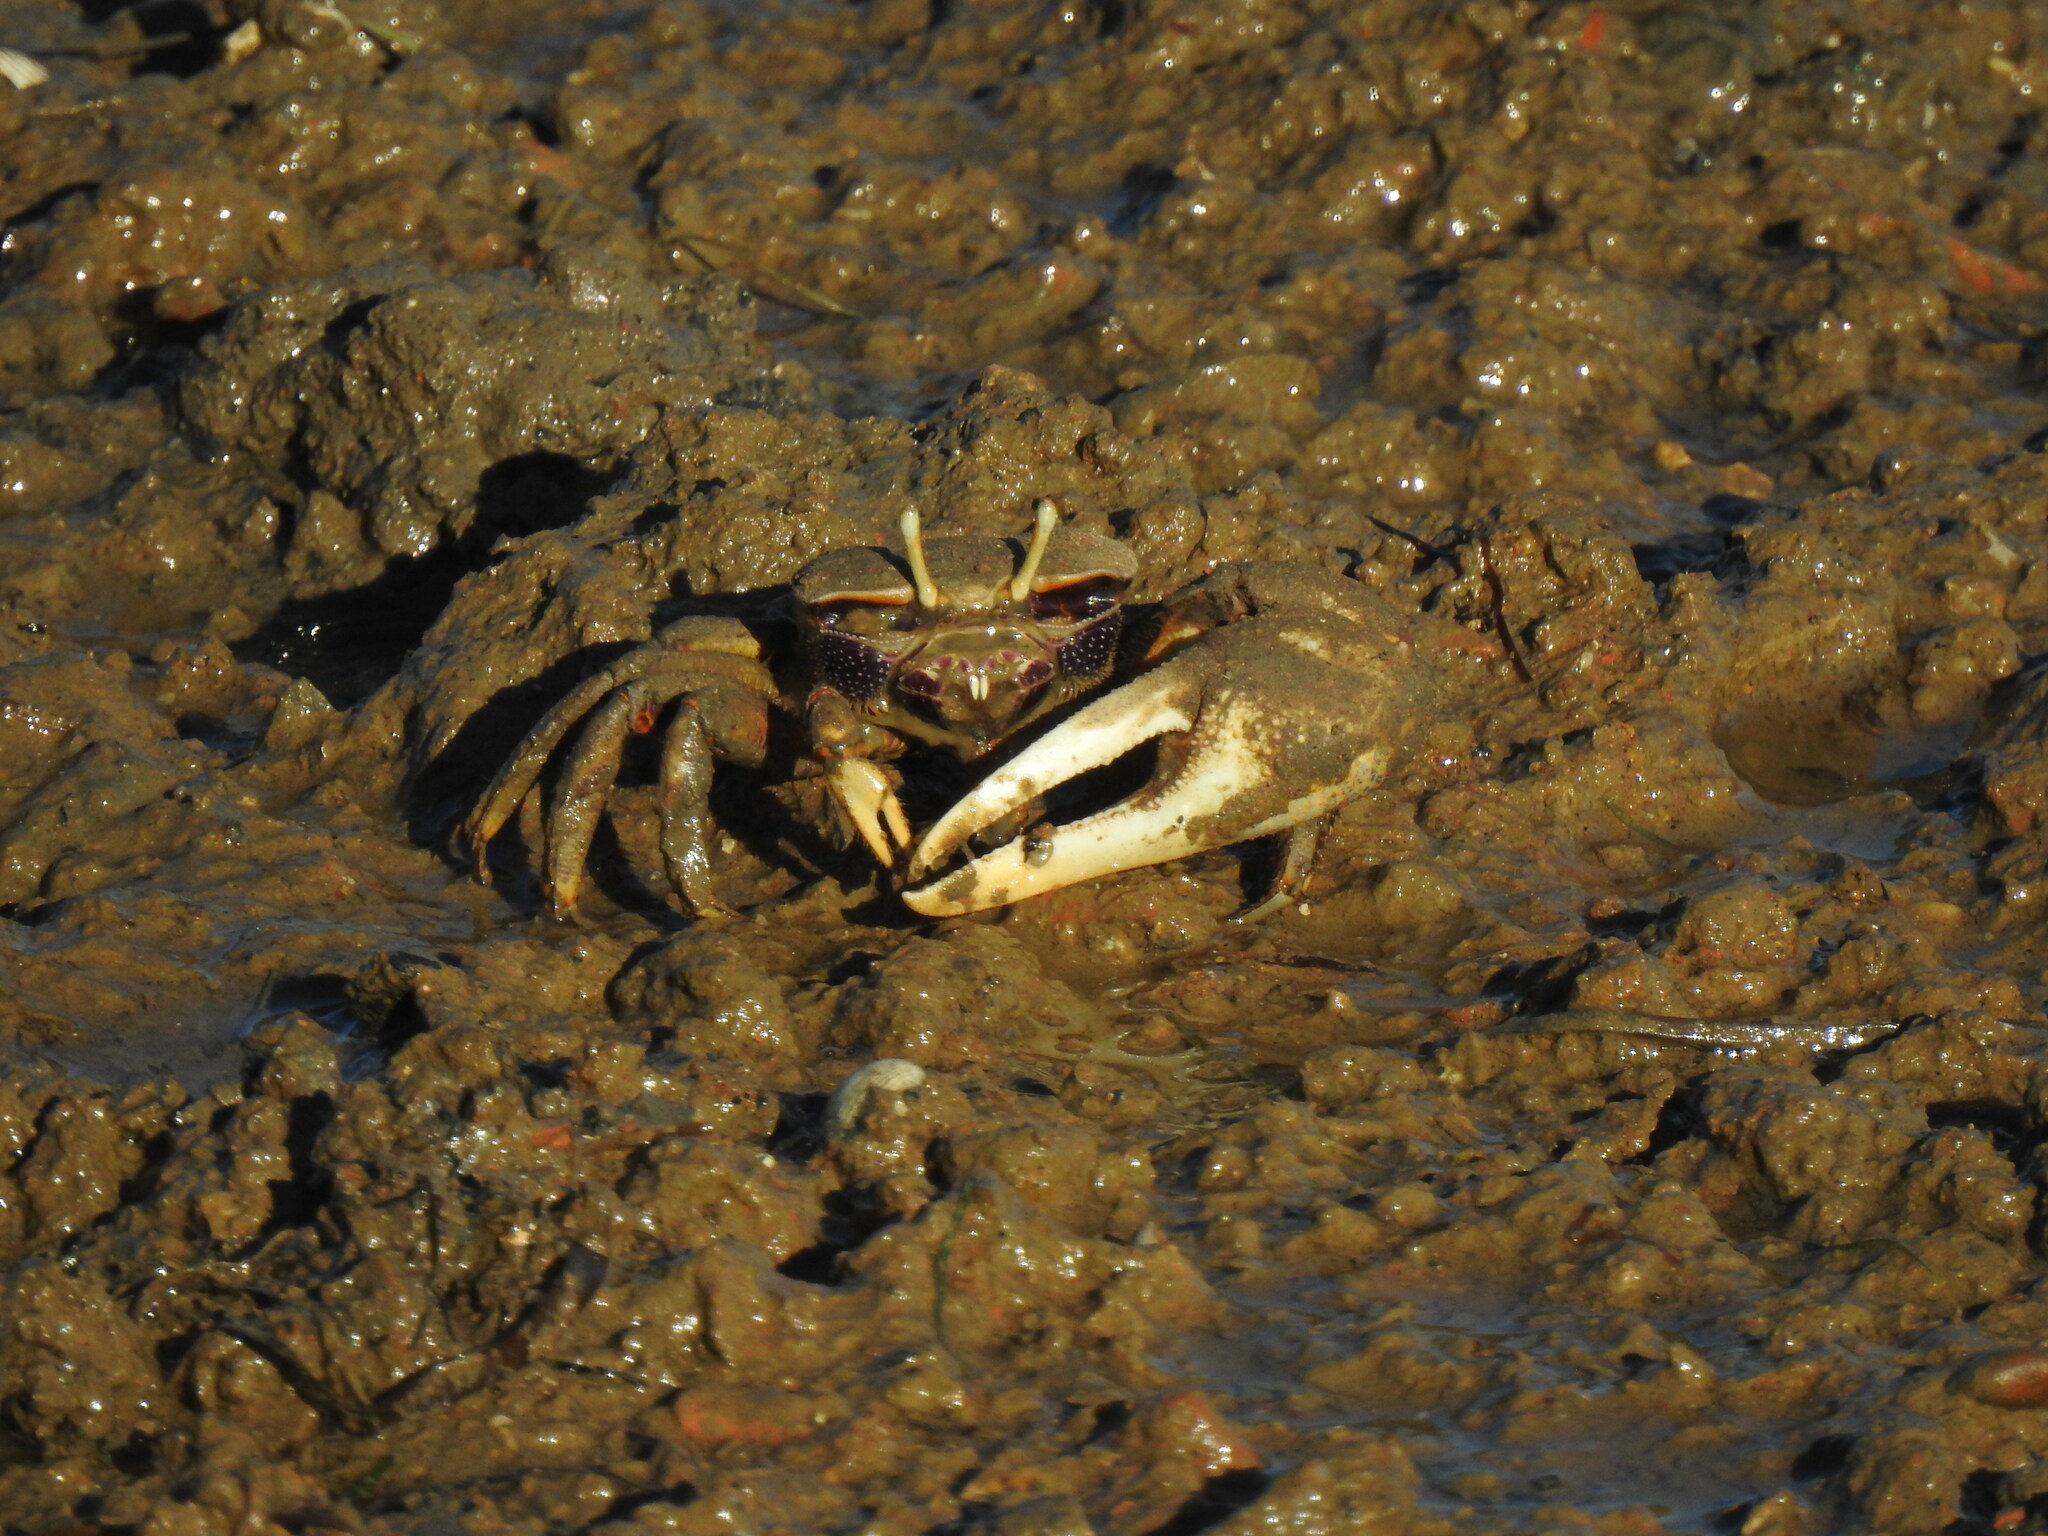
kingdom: Animalia
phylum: Arthropoda
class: Malacostraca
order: Decapoda
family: Ocypodidae
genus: Afruca
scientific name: Afruca tangeri
